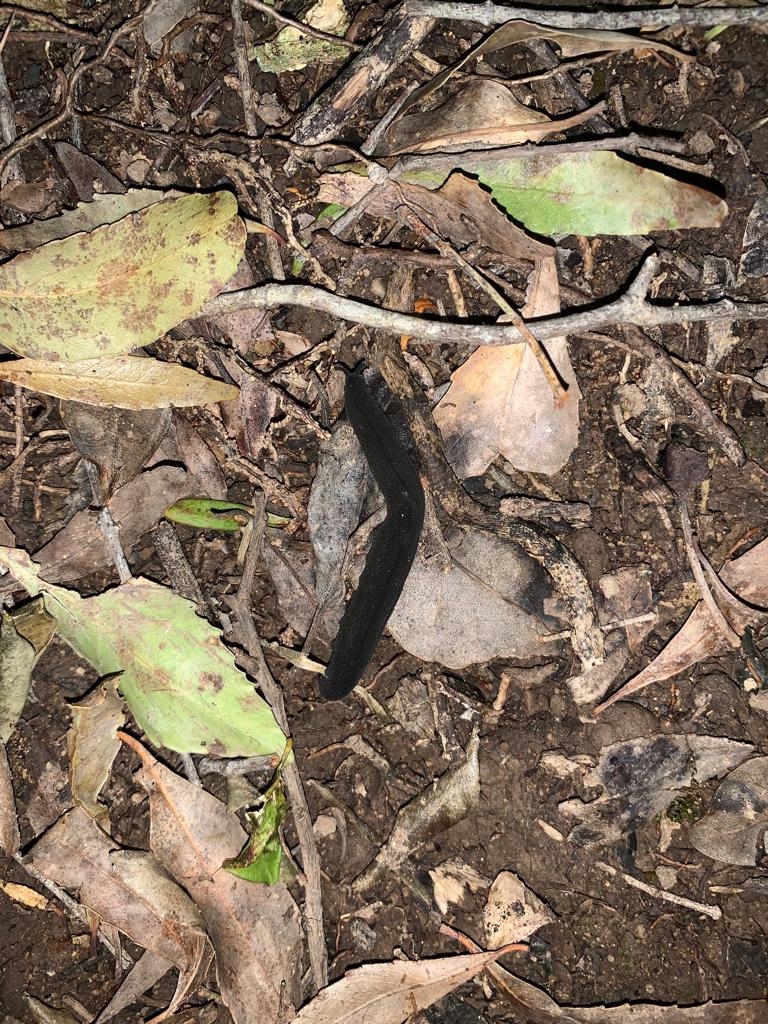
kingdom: Animalia
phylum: Onychophora
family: Peripatopsidae
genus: Peripatopsis
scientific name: Peripatopsis overbergiensis
